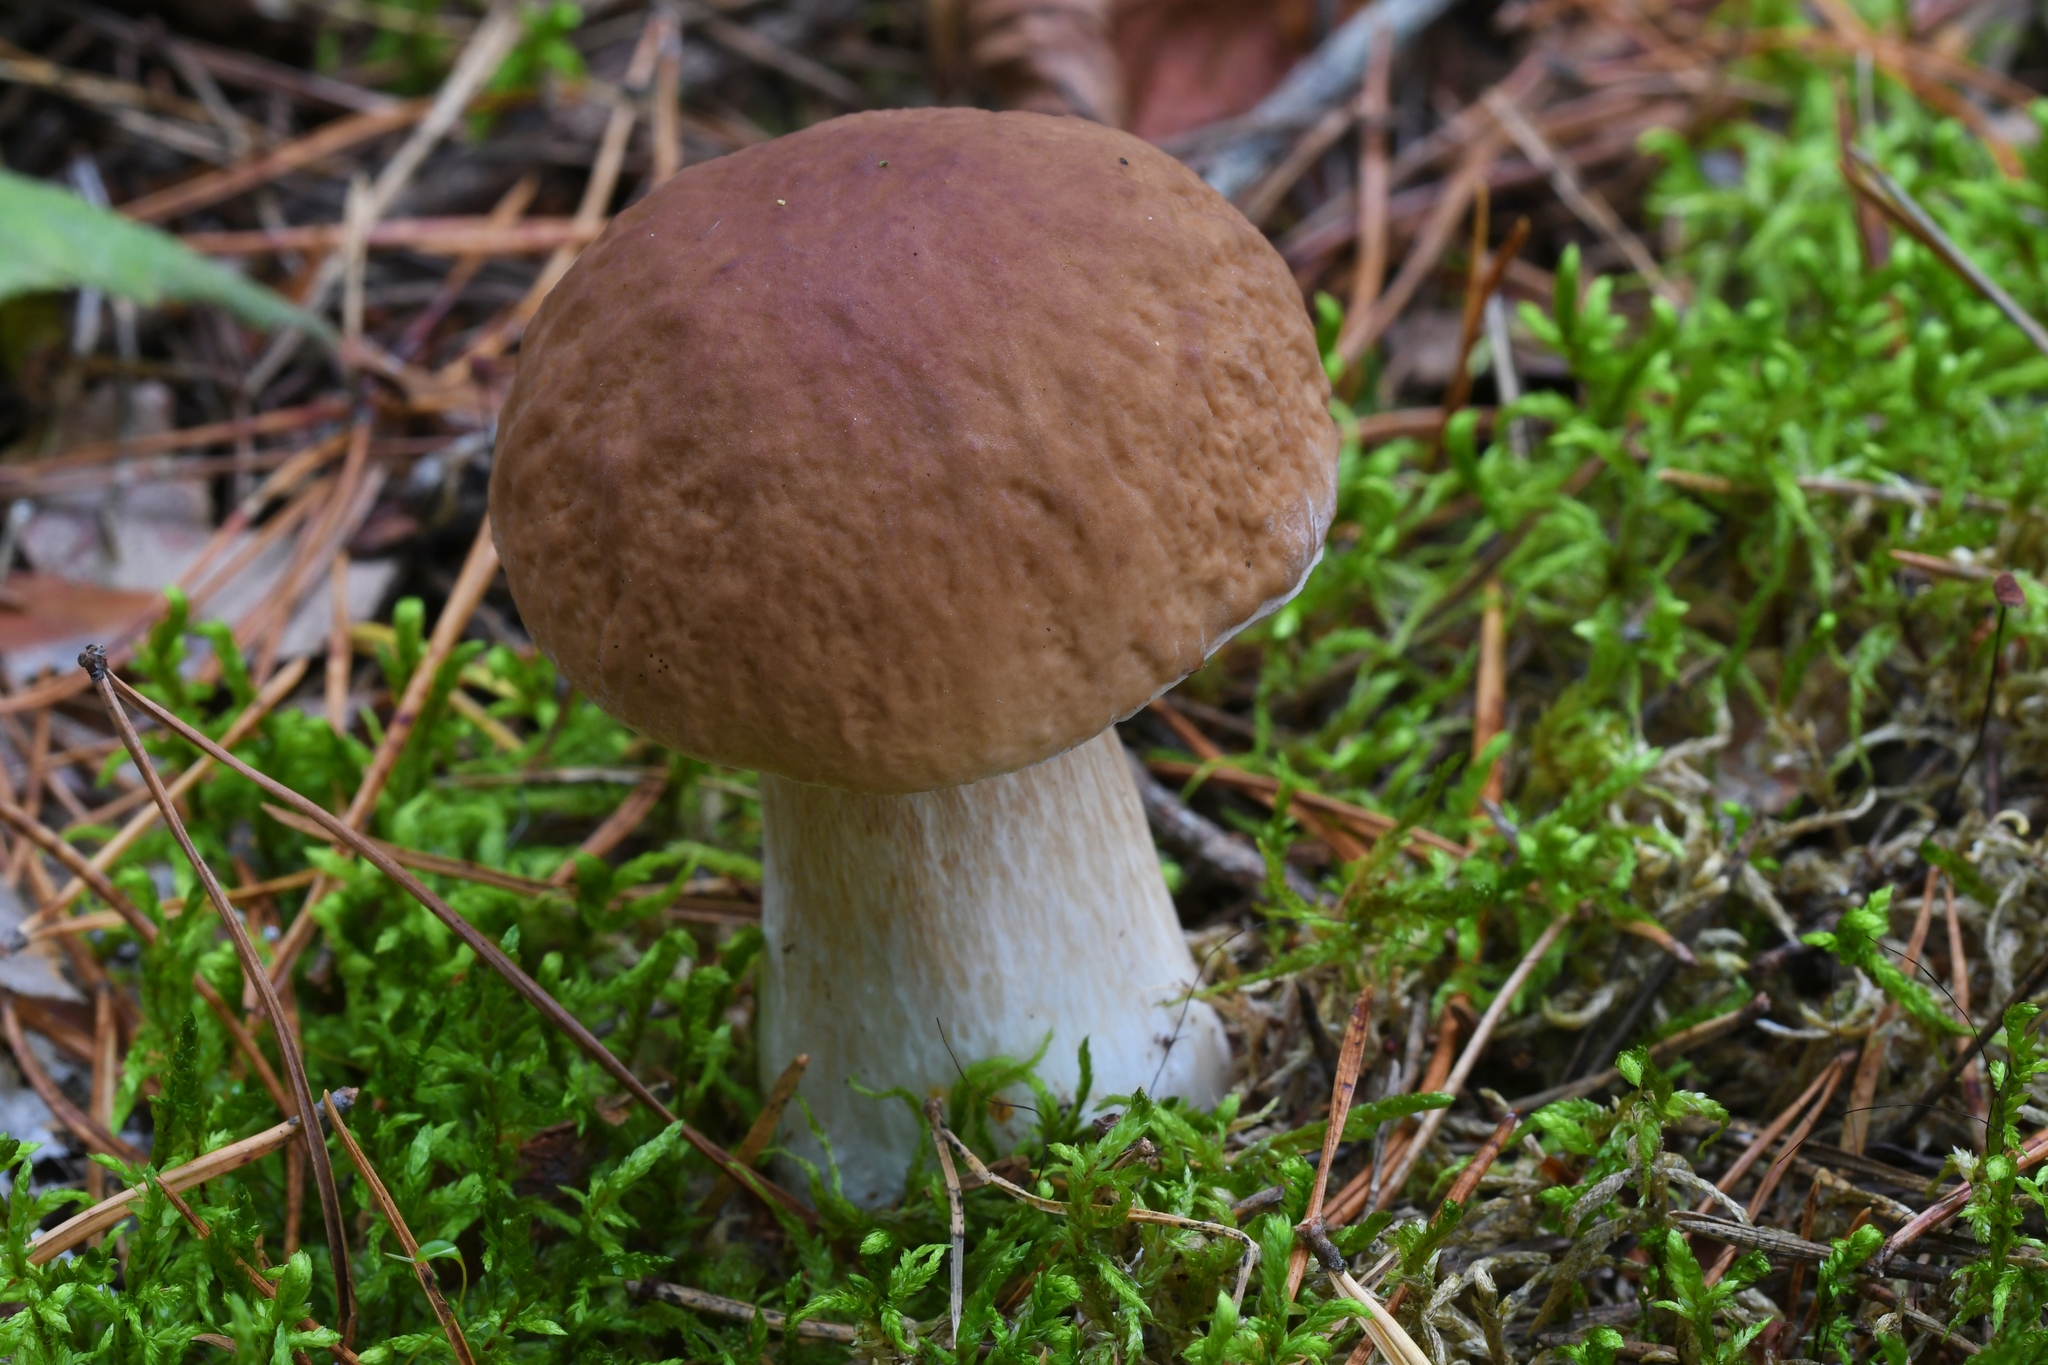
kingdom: Fungi
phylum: Basidiomycota
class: Agaricomycetes
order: Boletales
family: Boletaceae
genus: Boletus
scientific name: Boletus edulis
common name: Cep
